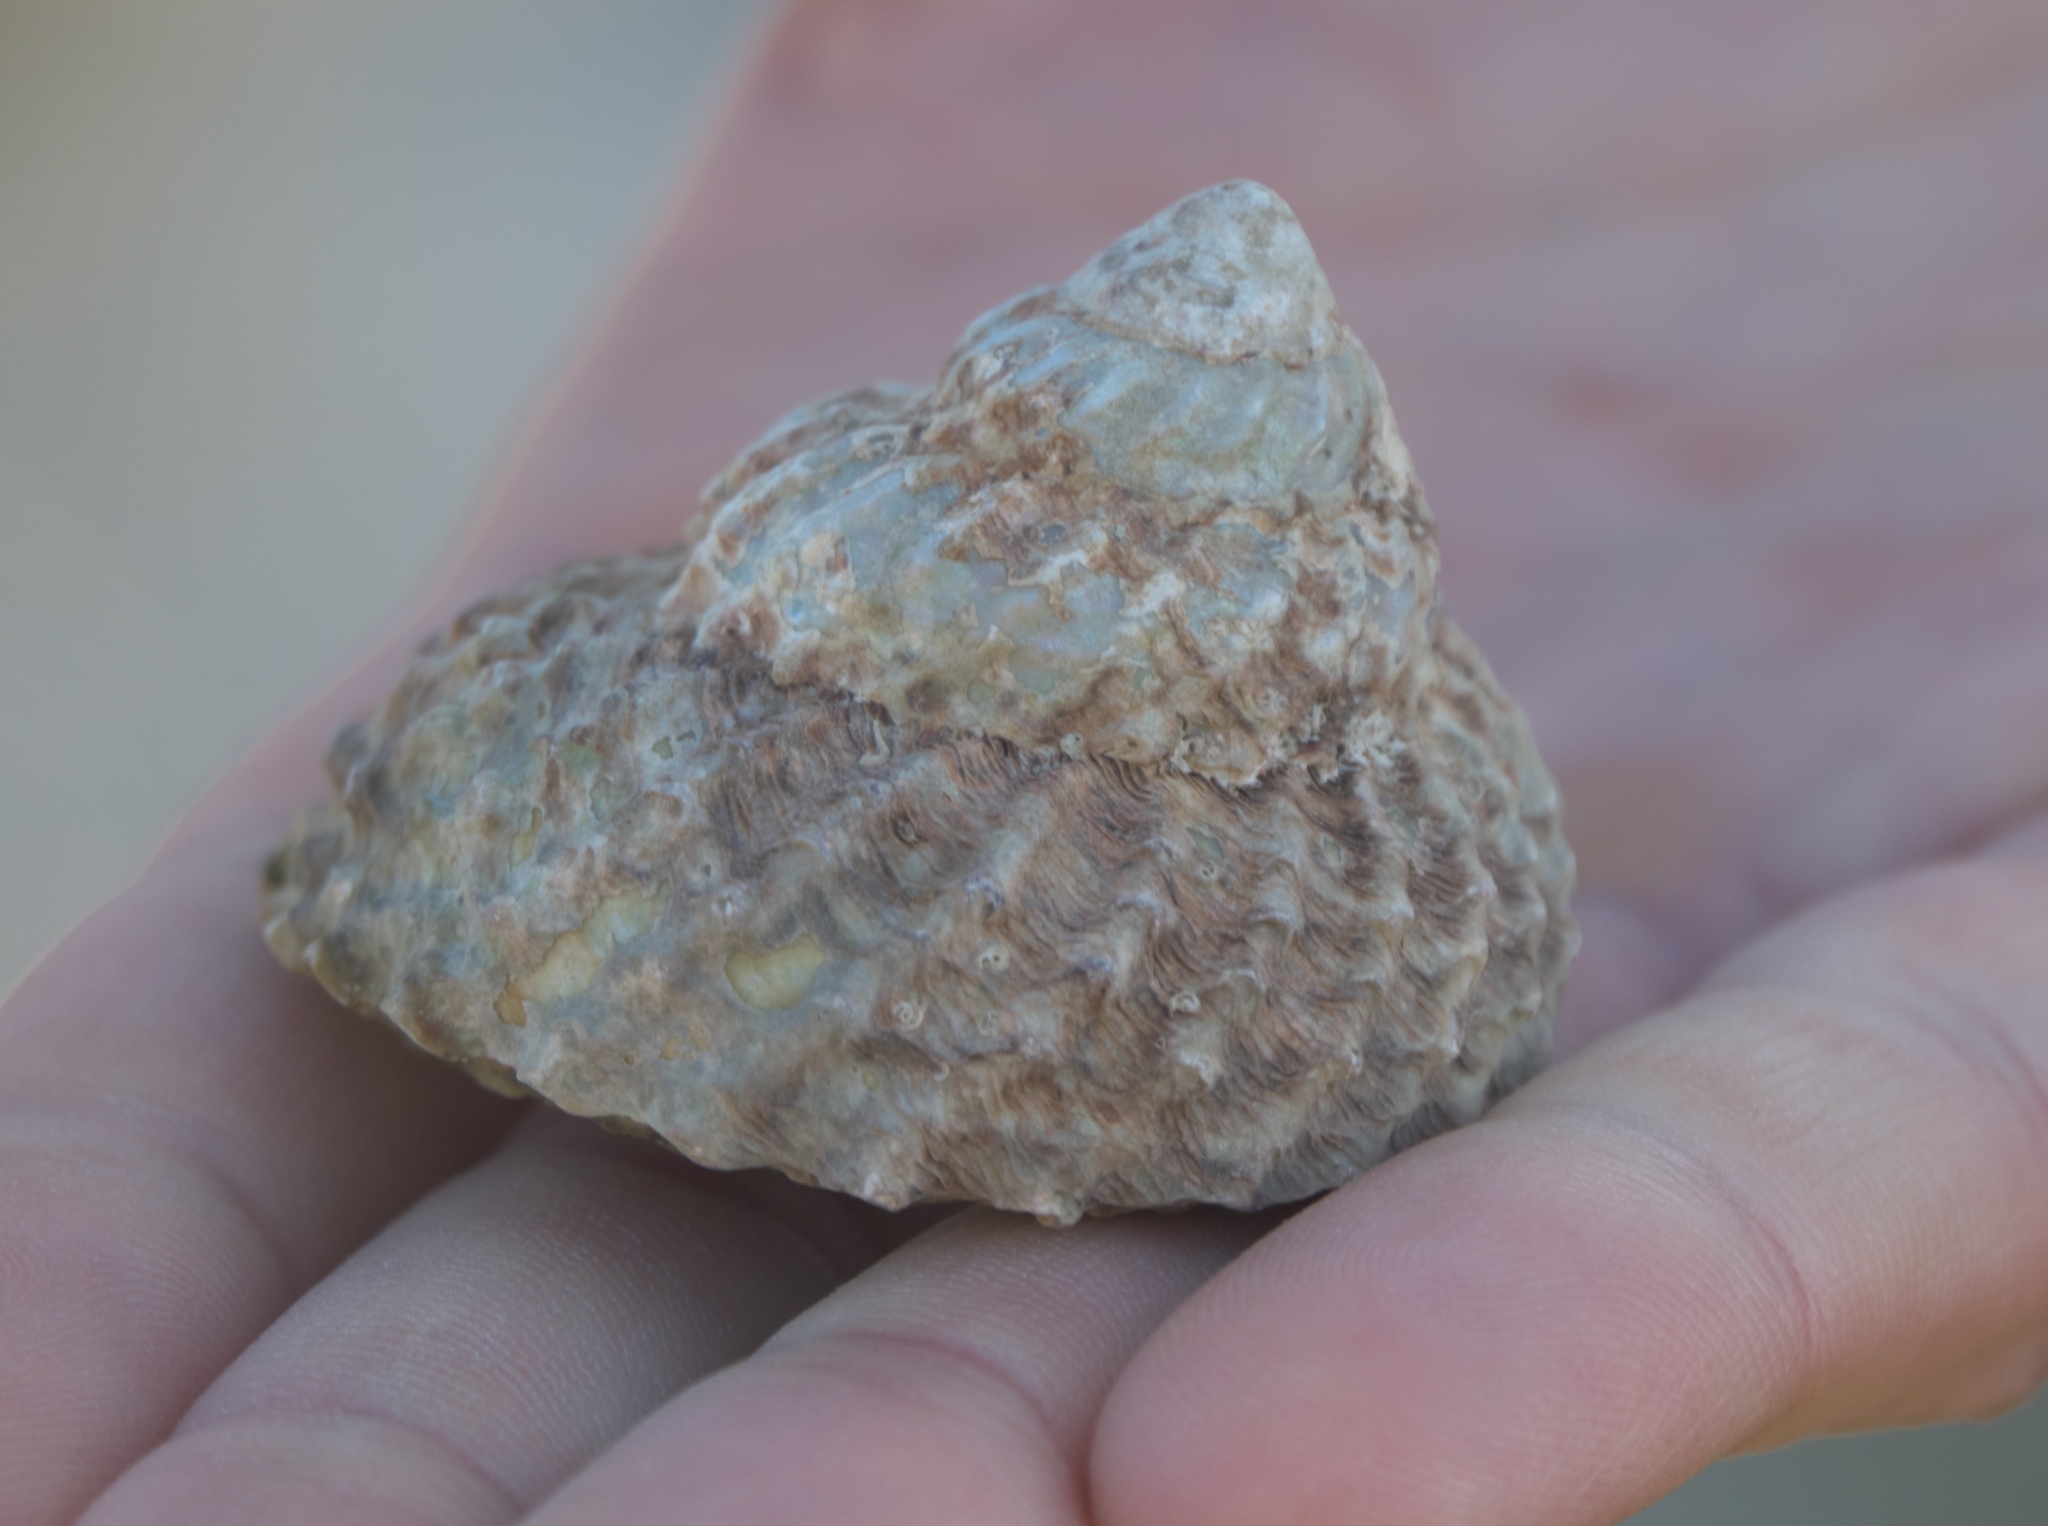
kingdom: Animalia
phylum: Mollusca
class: Gastropoda
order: Trochida
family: Turbinidae
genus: Cookia
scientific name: Cookia sulcata
